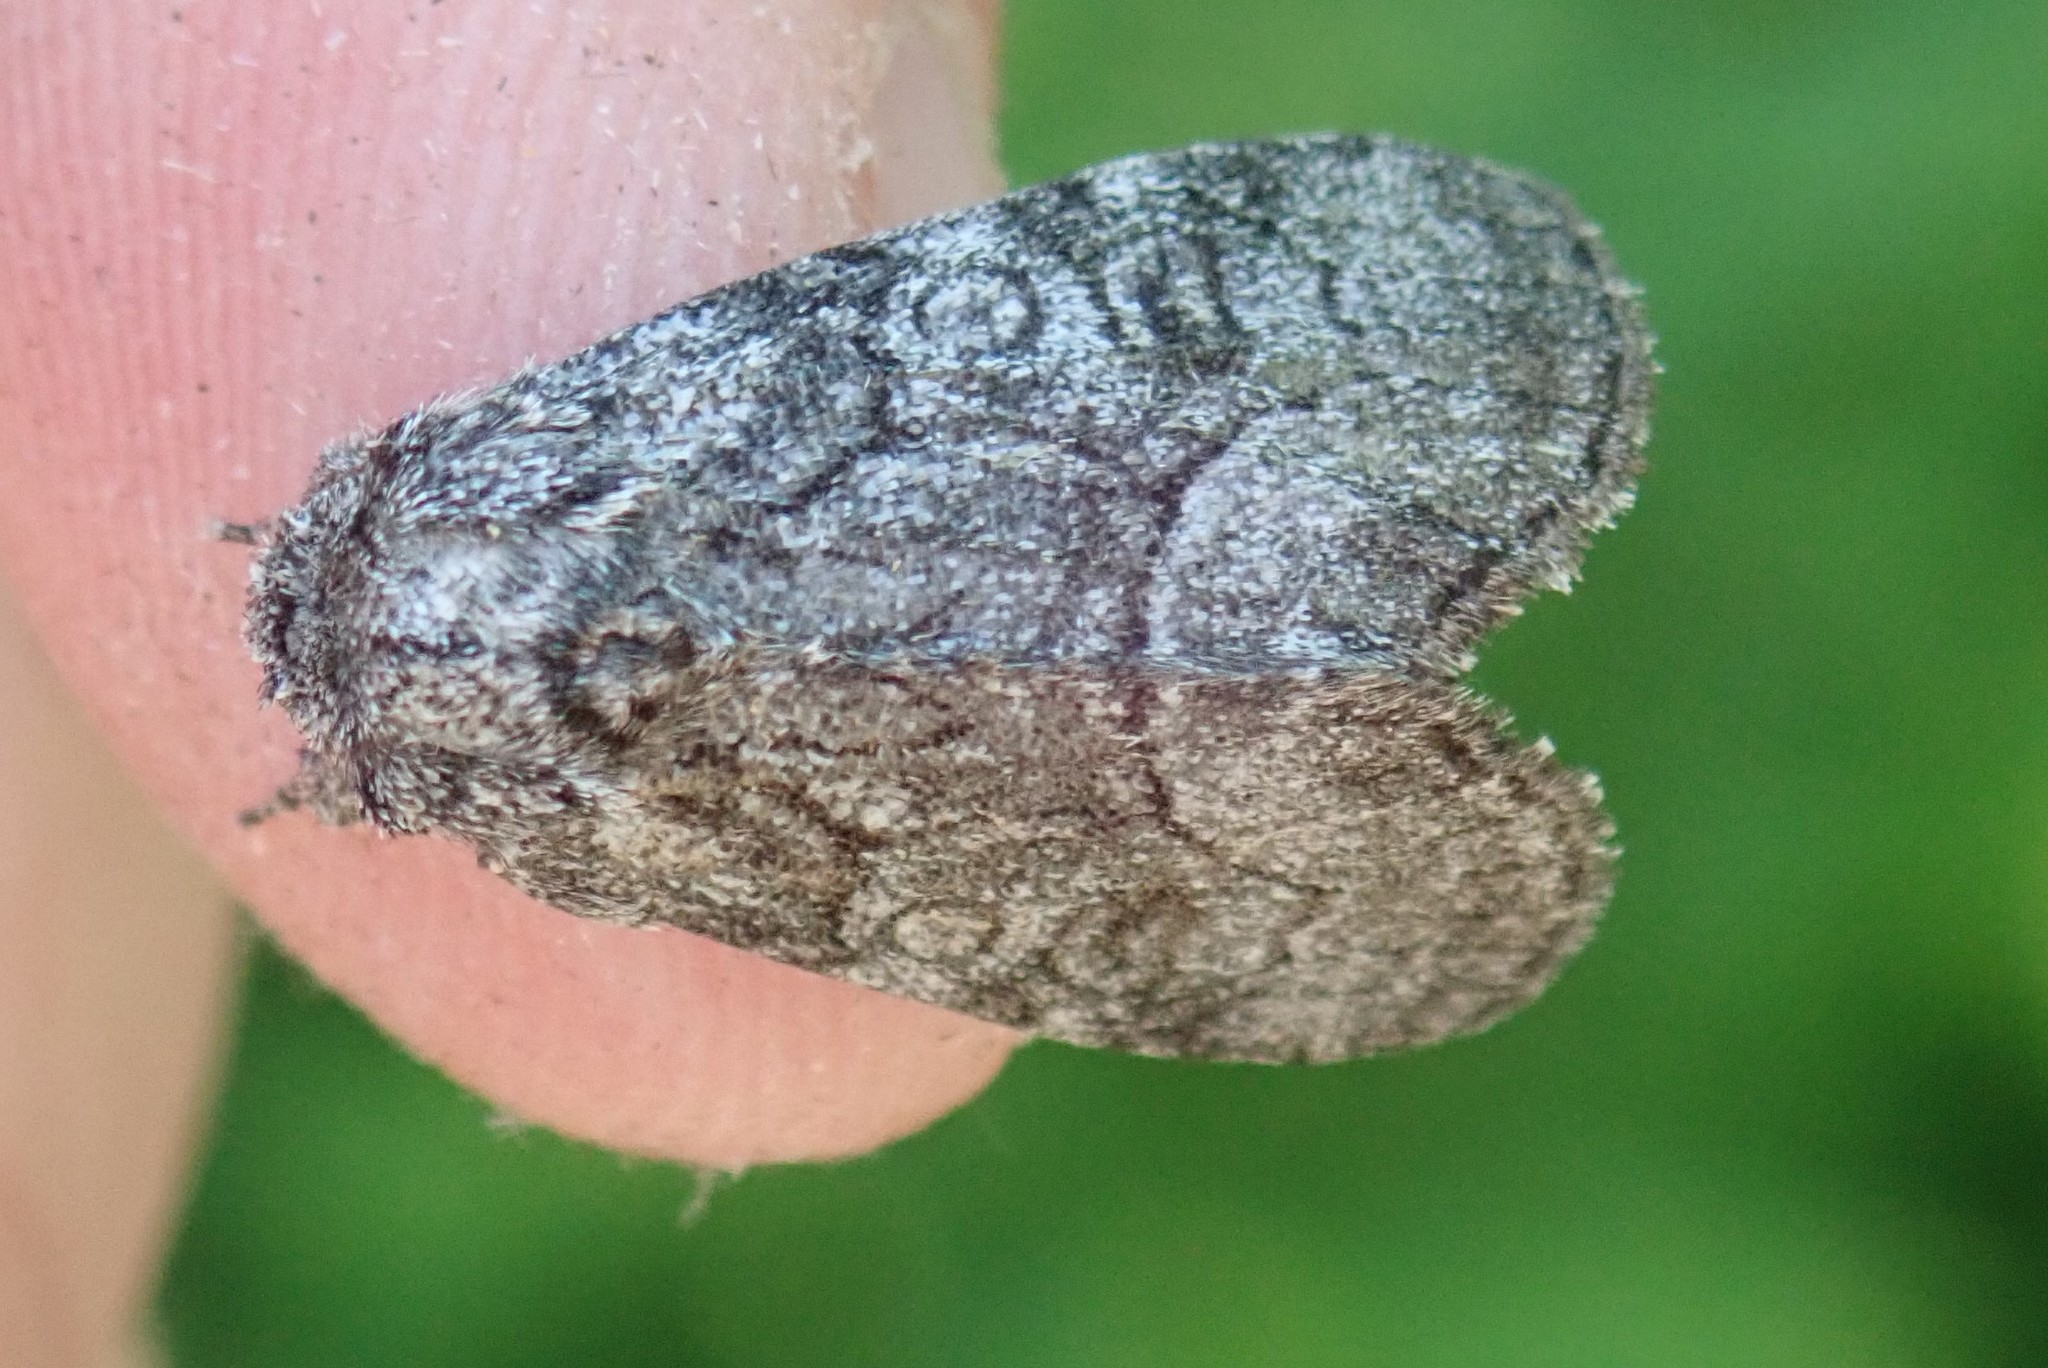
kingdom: Animalia
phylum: Arthropoda
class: Insecta
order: Lepidoptera
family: Noctuidae
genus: Raphia
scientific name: Raphia frater
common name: Brother
